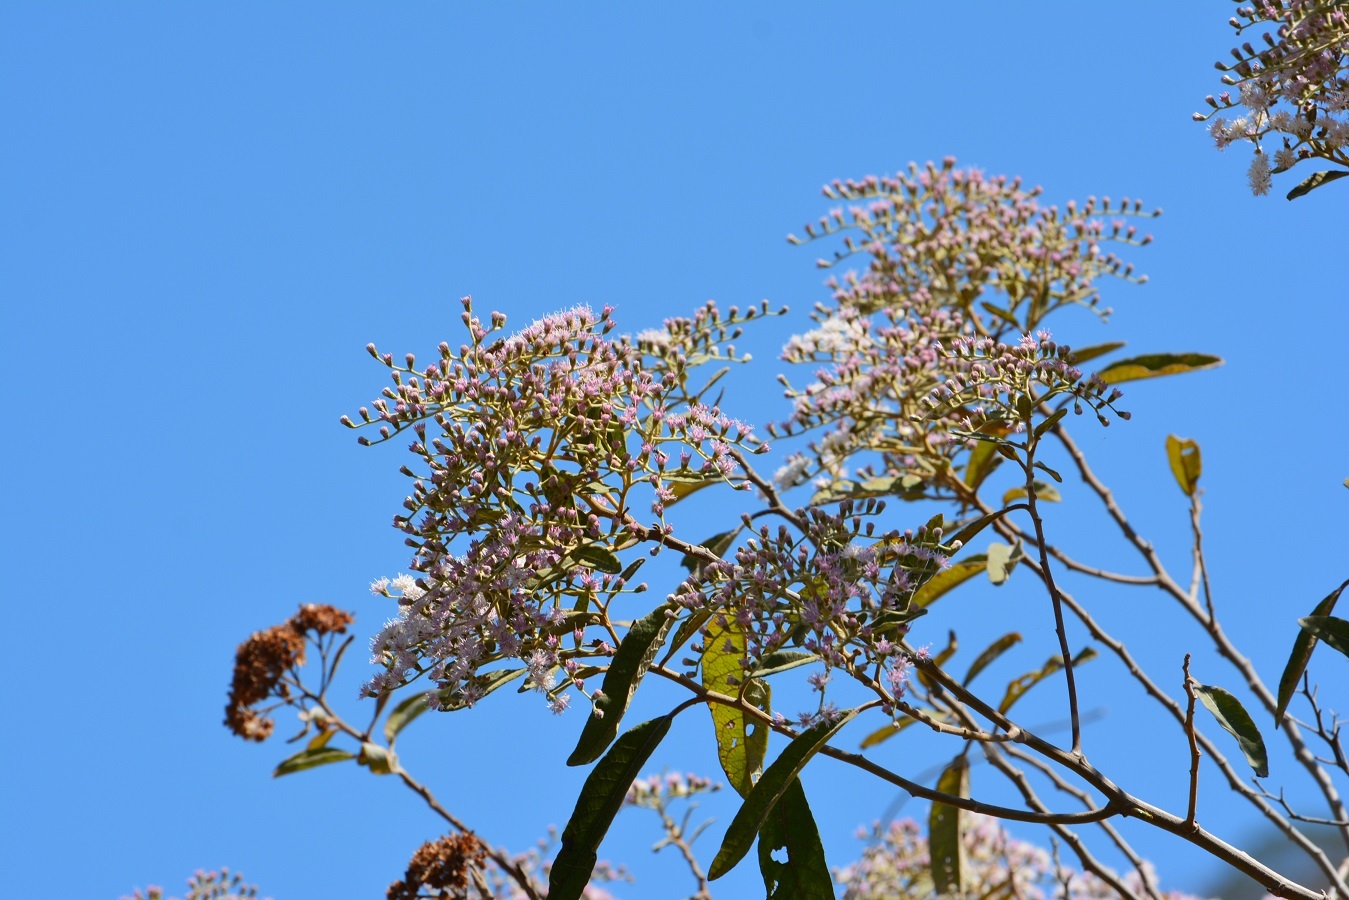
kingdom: Plantae
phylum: Tracheophyta
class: Magnoliopsida
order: Asterales
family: Asteraceae
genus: Vernonanthura
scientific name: Vernonanthura patens
